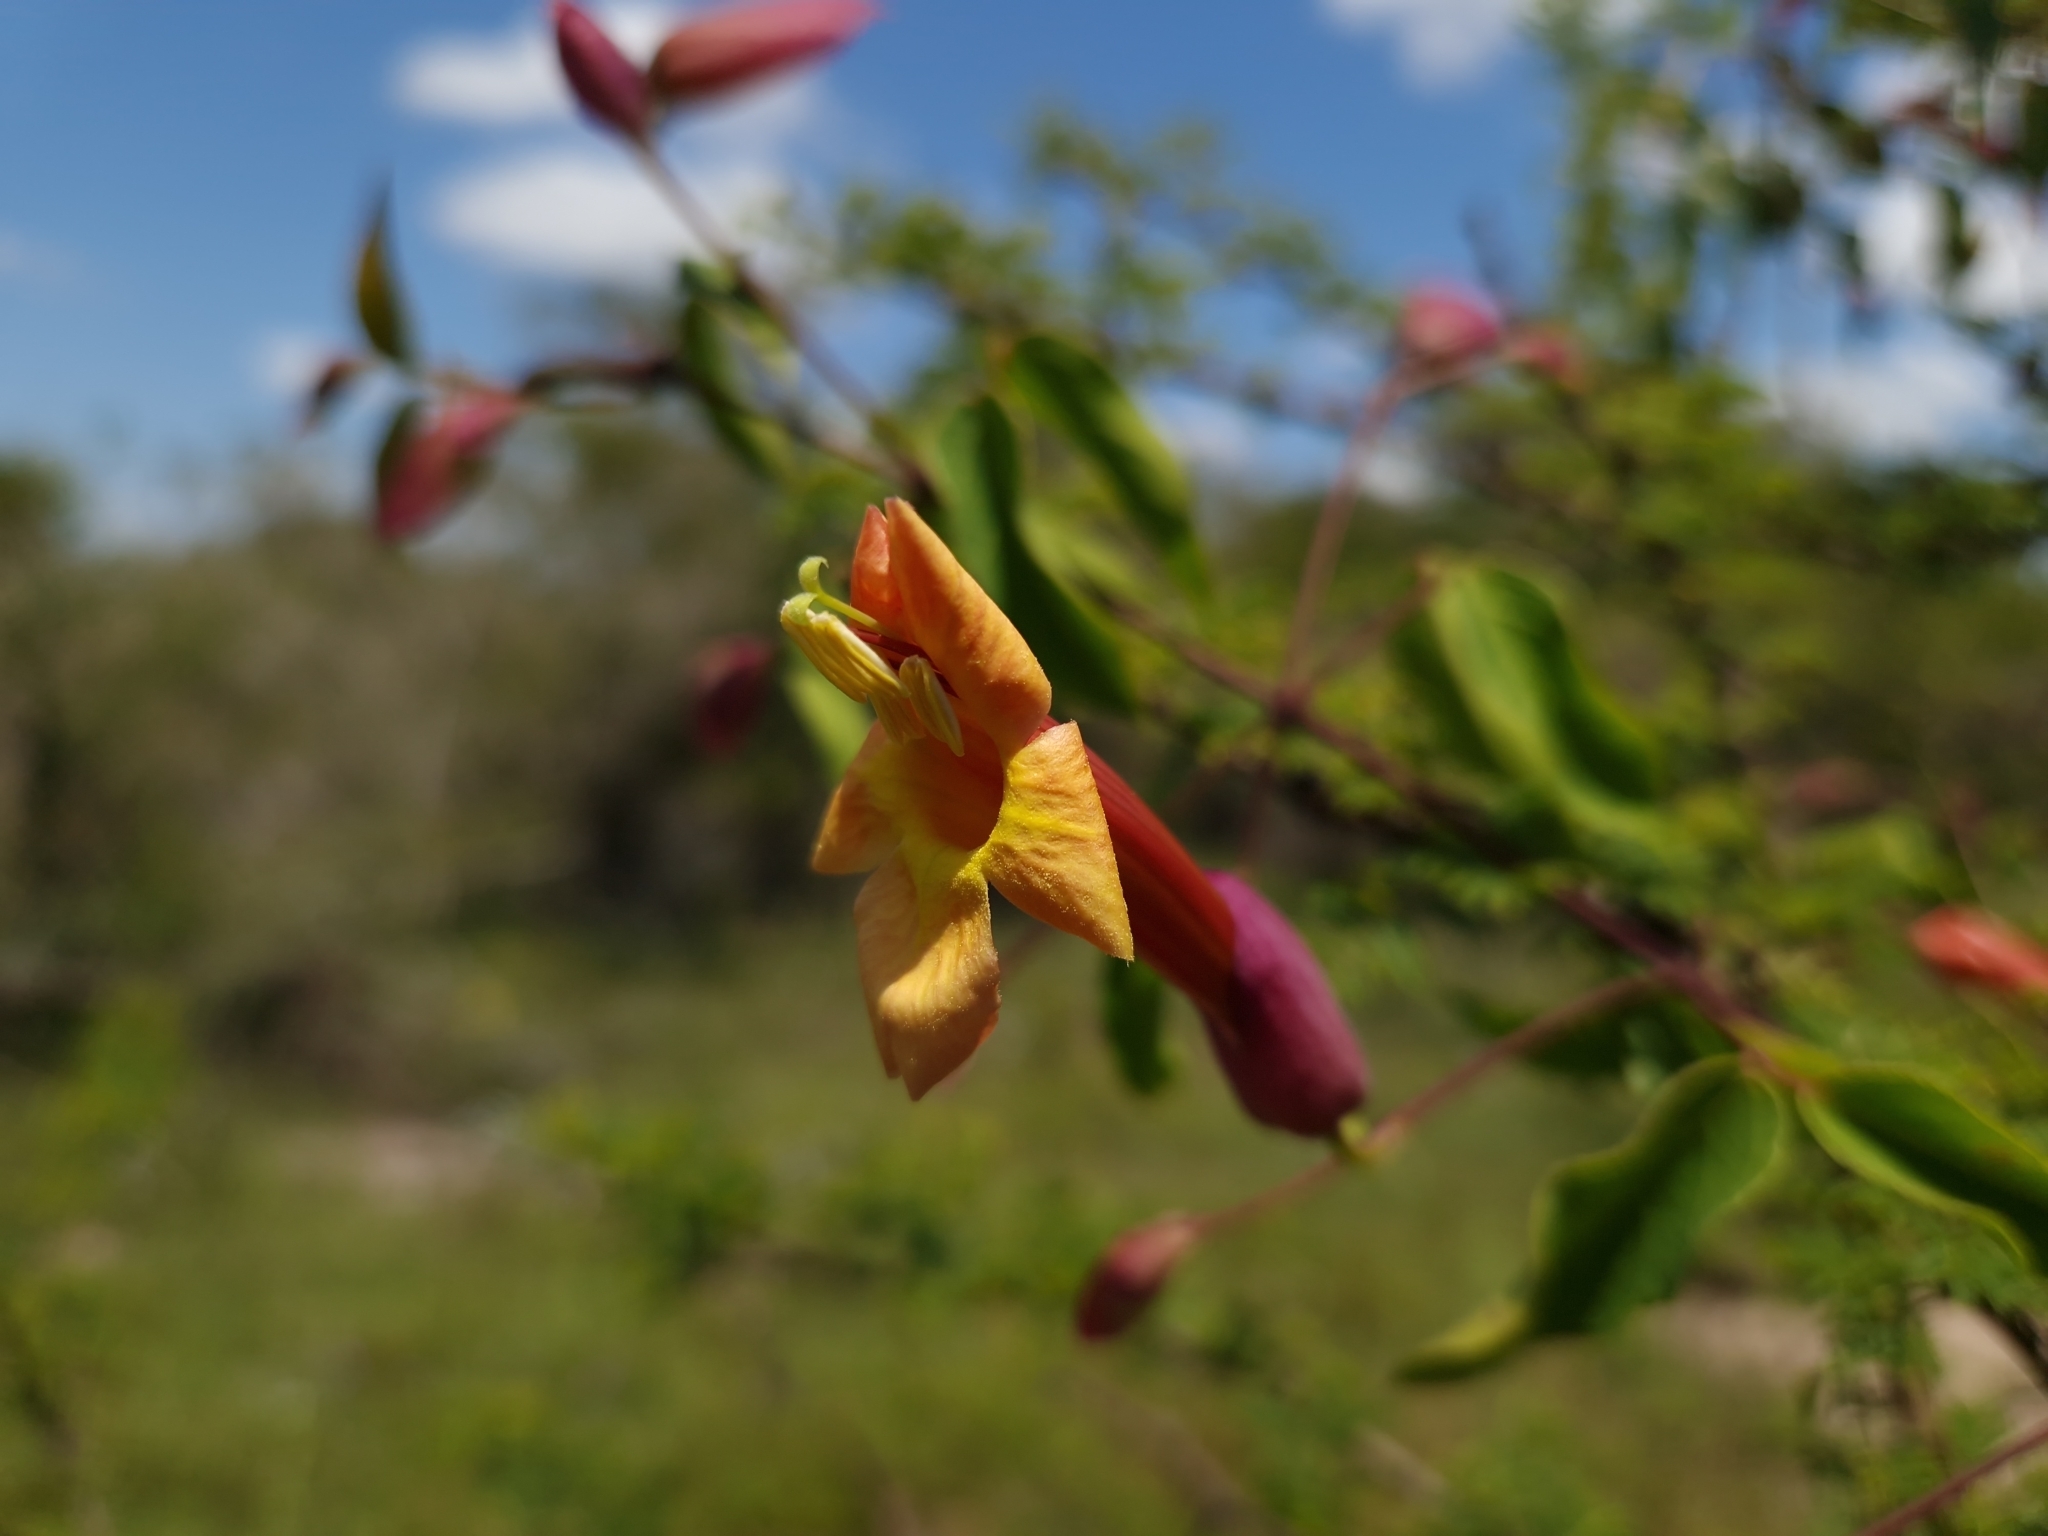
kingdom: Plantae
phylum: Tracheophyta
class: Magnoliopsida
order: Lamiales
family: Bignoniaceae
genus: Dolichandra
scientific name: Dolichandra cynanchoides
